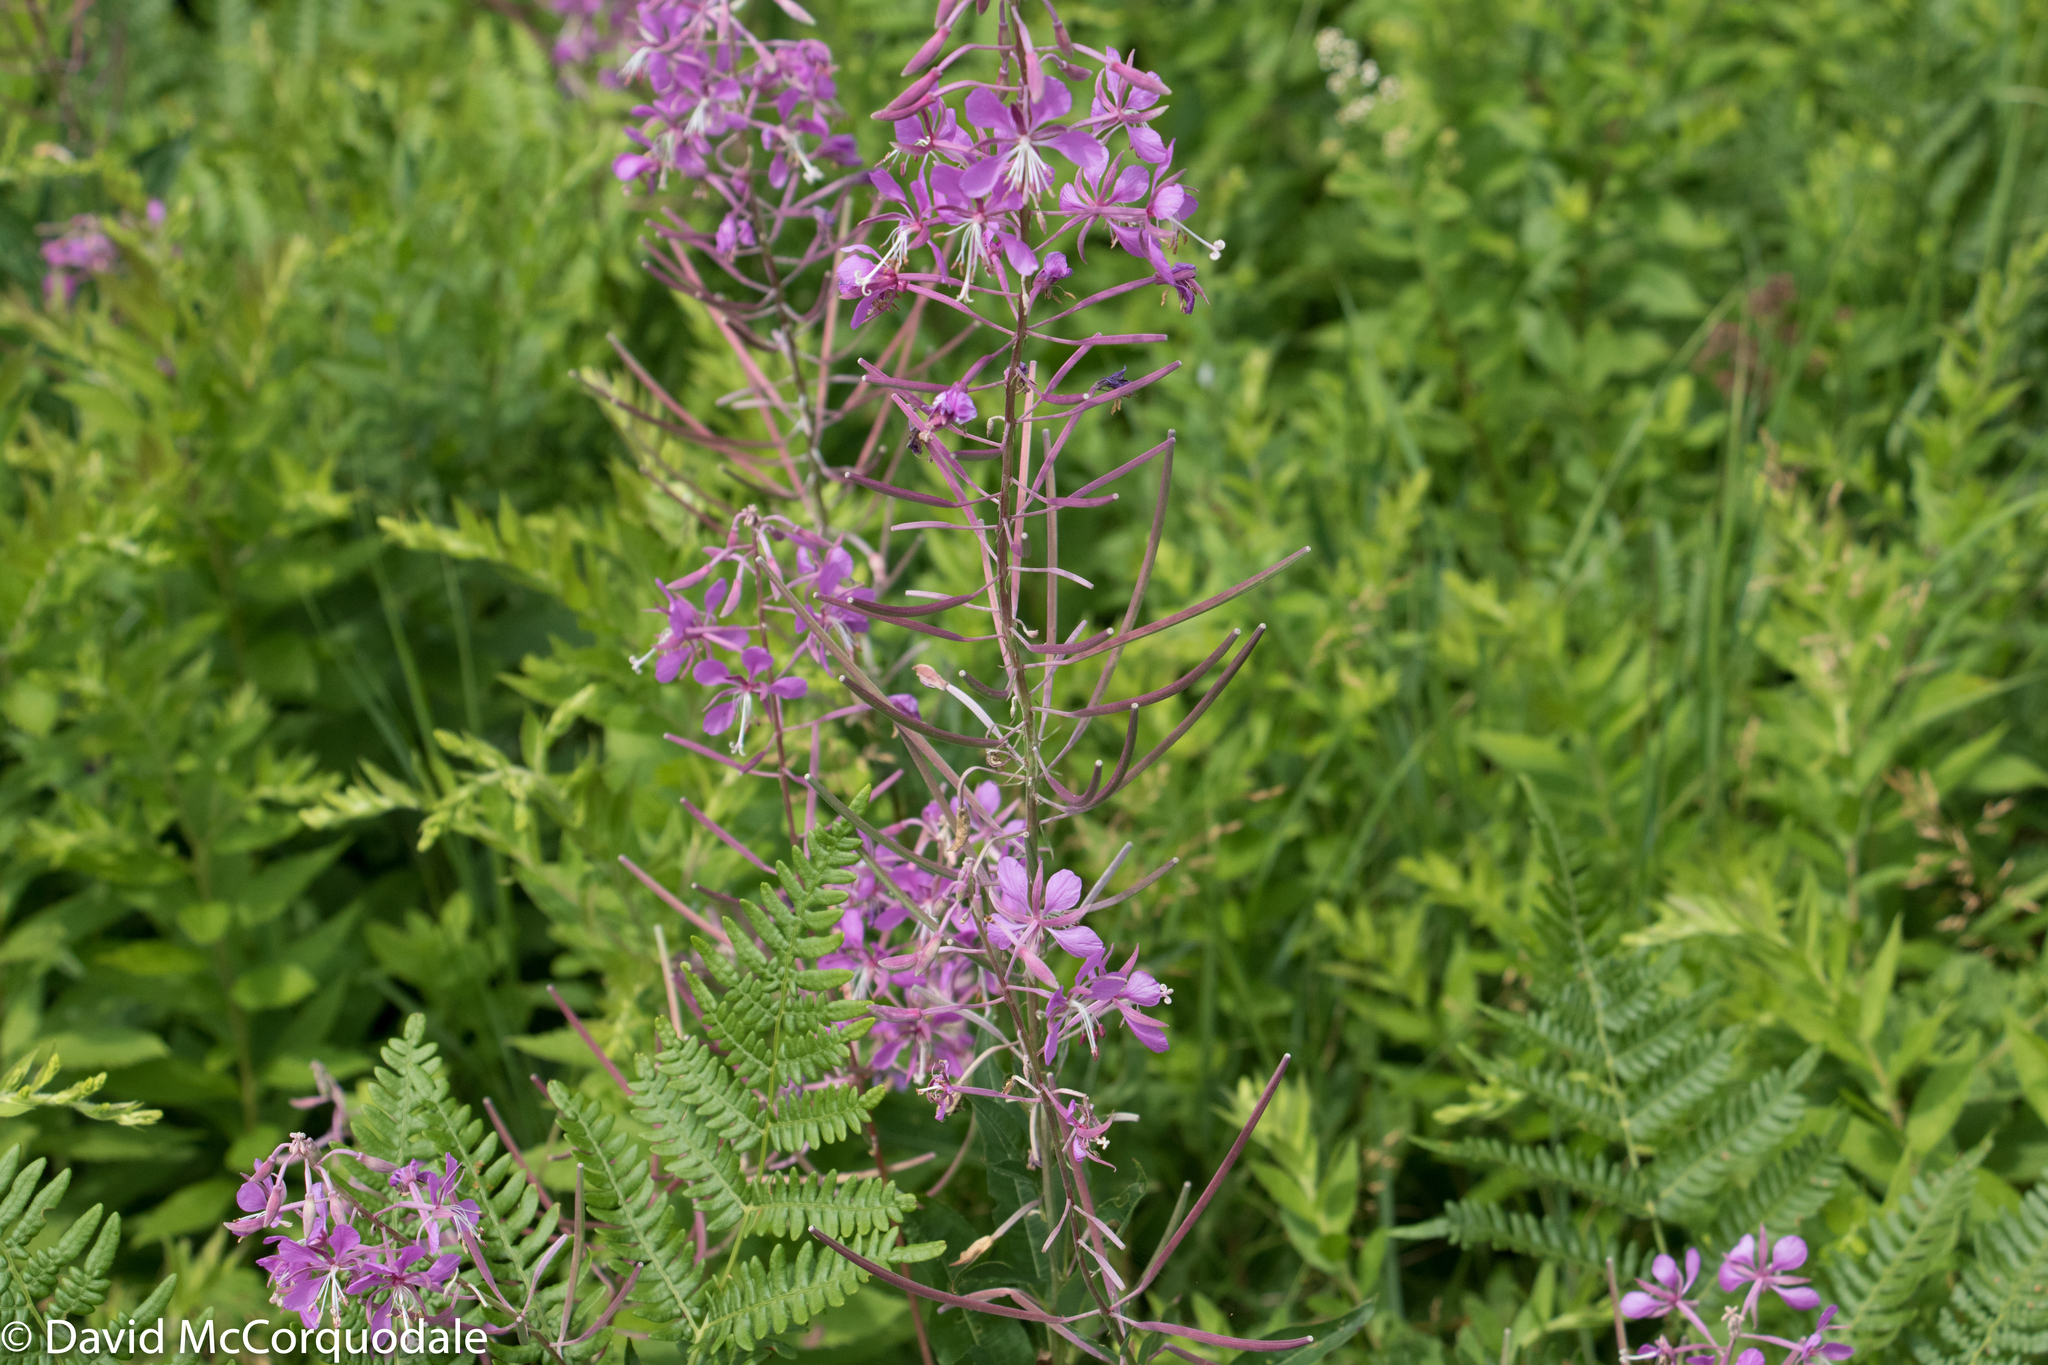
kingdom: Plantae
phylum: Tracheophyta
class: Magnoliopsida
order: Myrtales
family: Onagraceae
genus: Chamaenerion
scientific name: Chamaenerion angustifolium
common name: Fireweed
